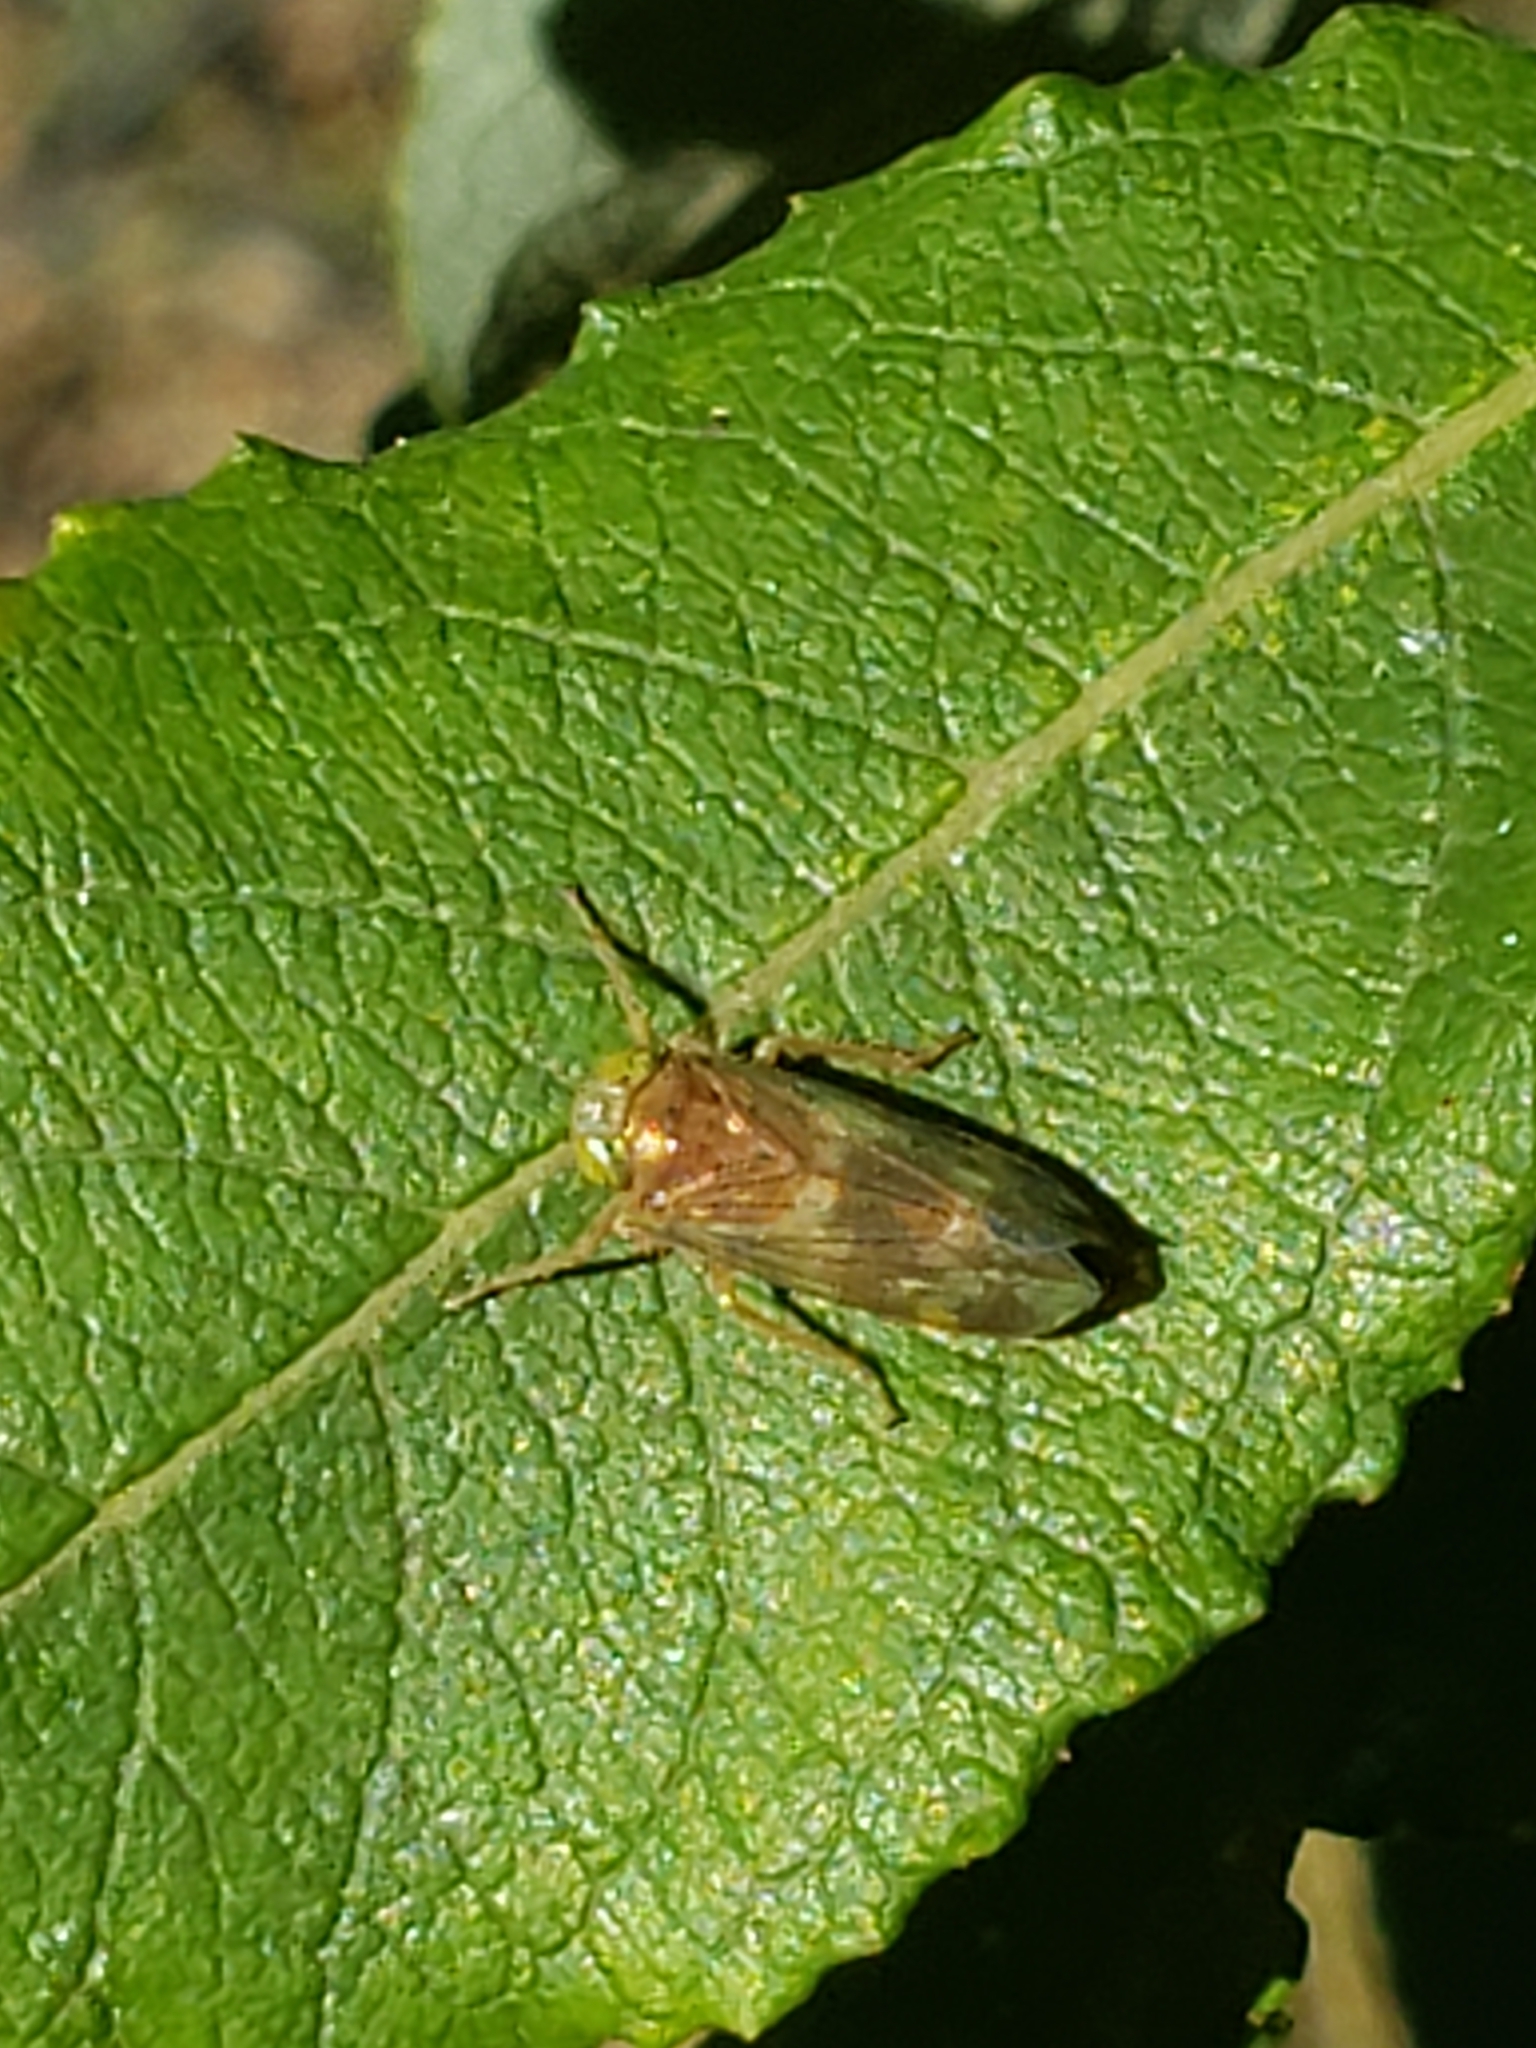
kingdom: Animalia
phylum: Arthropoda
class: Insecta
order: Hemiptera
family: Cicadellidae
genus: Jikradia
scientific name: Jikradia olitoria
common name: Coppery leafhopper
